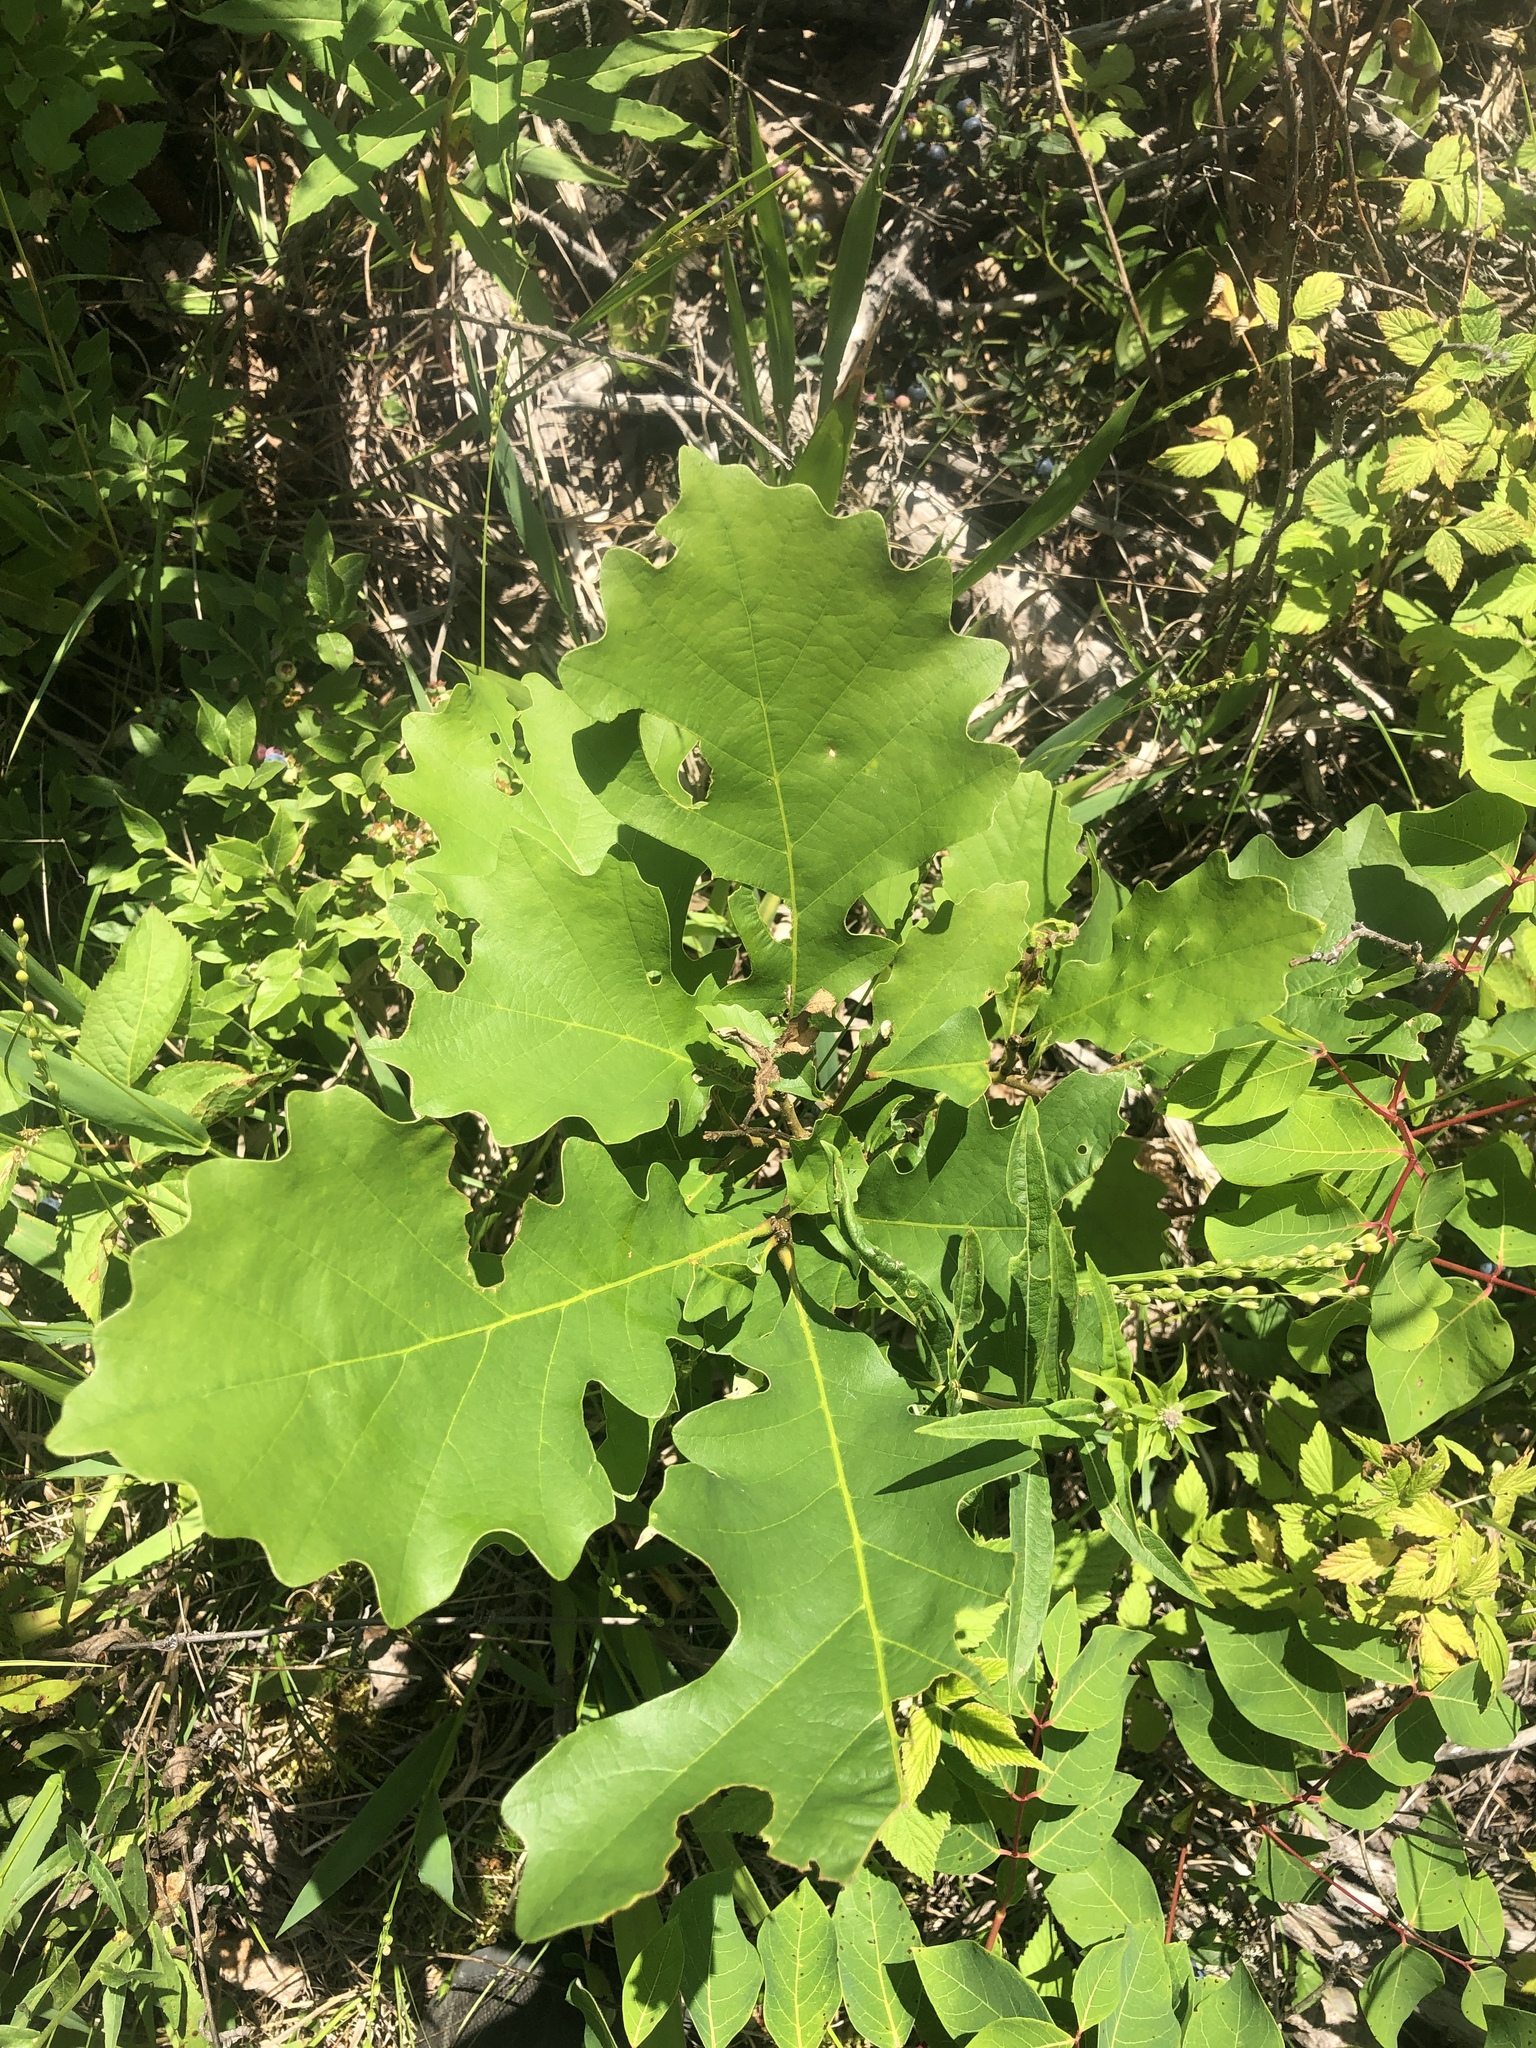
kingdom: Plantae
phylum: Tracheophyta
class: Magnoliopsida
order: Fagales
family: Fagaceae
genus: Quercus
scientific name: Quercus macrocarpa
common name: Bur oak
